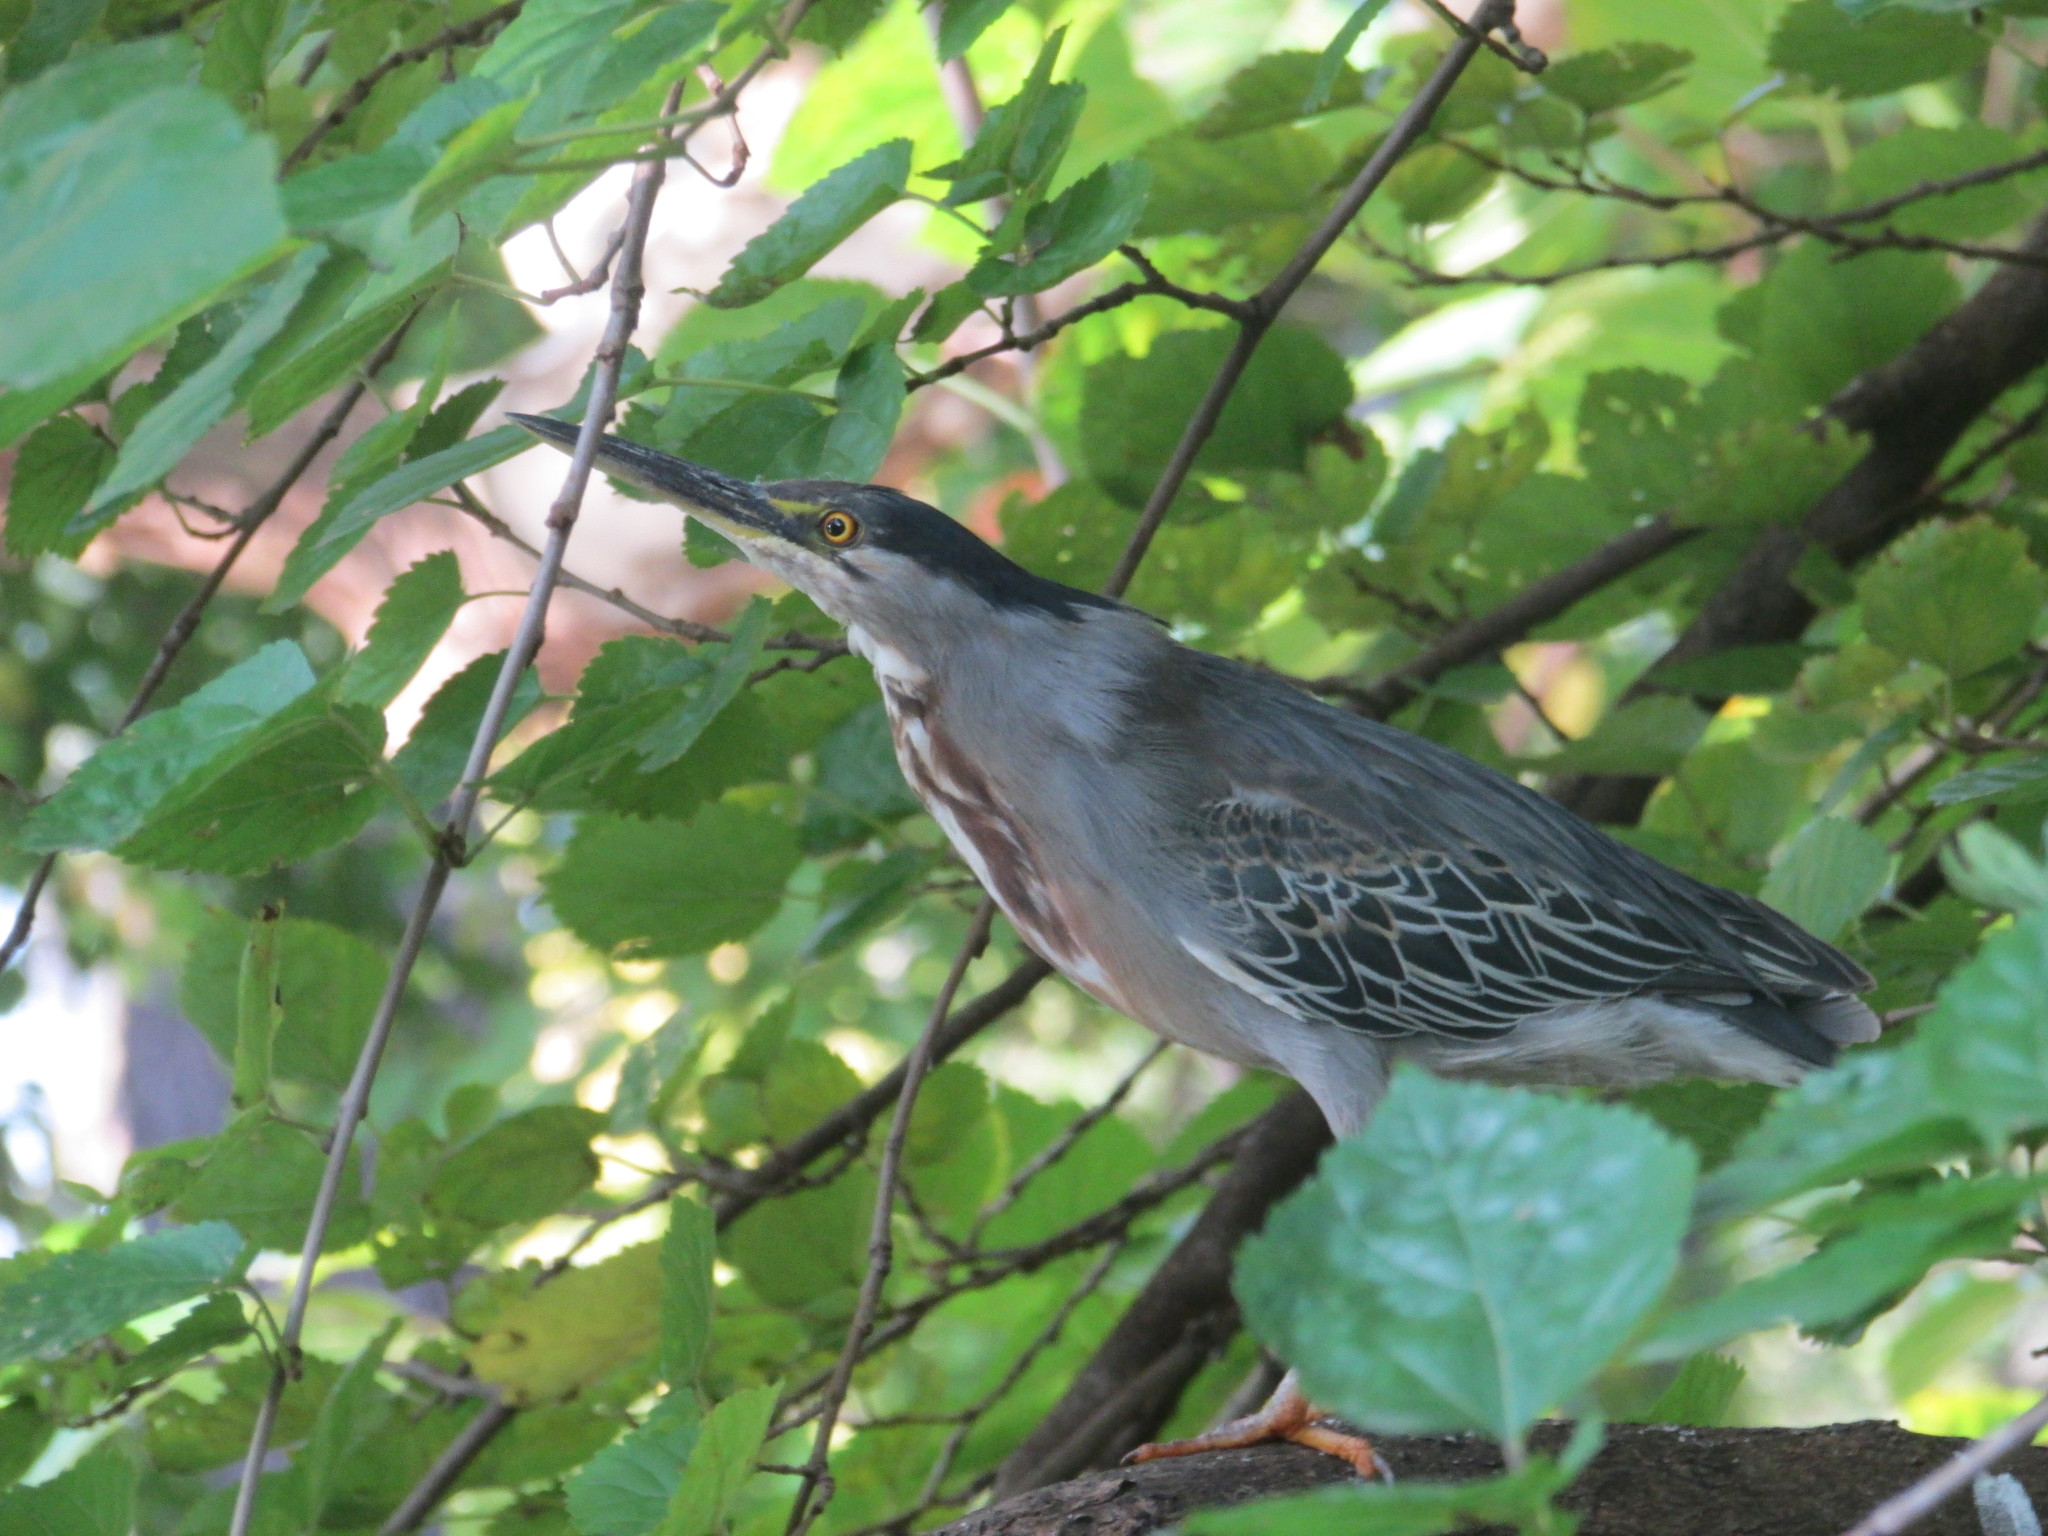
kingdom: Animalia
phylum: Chordata
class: Aves
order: Pelecaniformes
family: Ardeidae
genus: Butorides
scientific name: Butorides striata
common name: Striated heron
